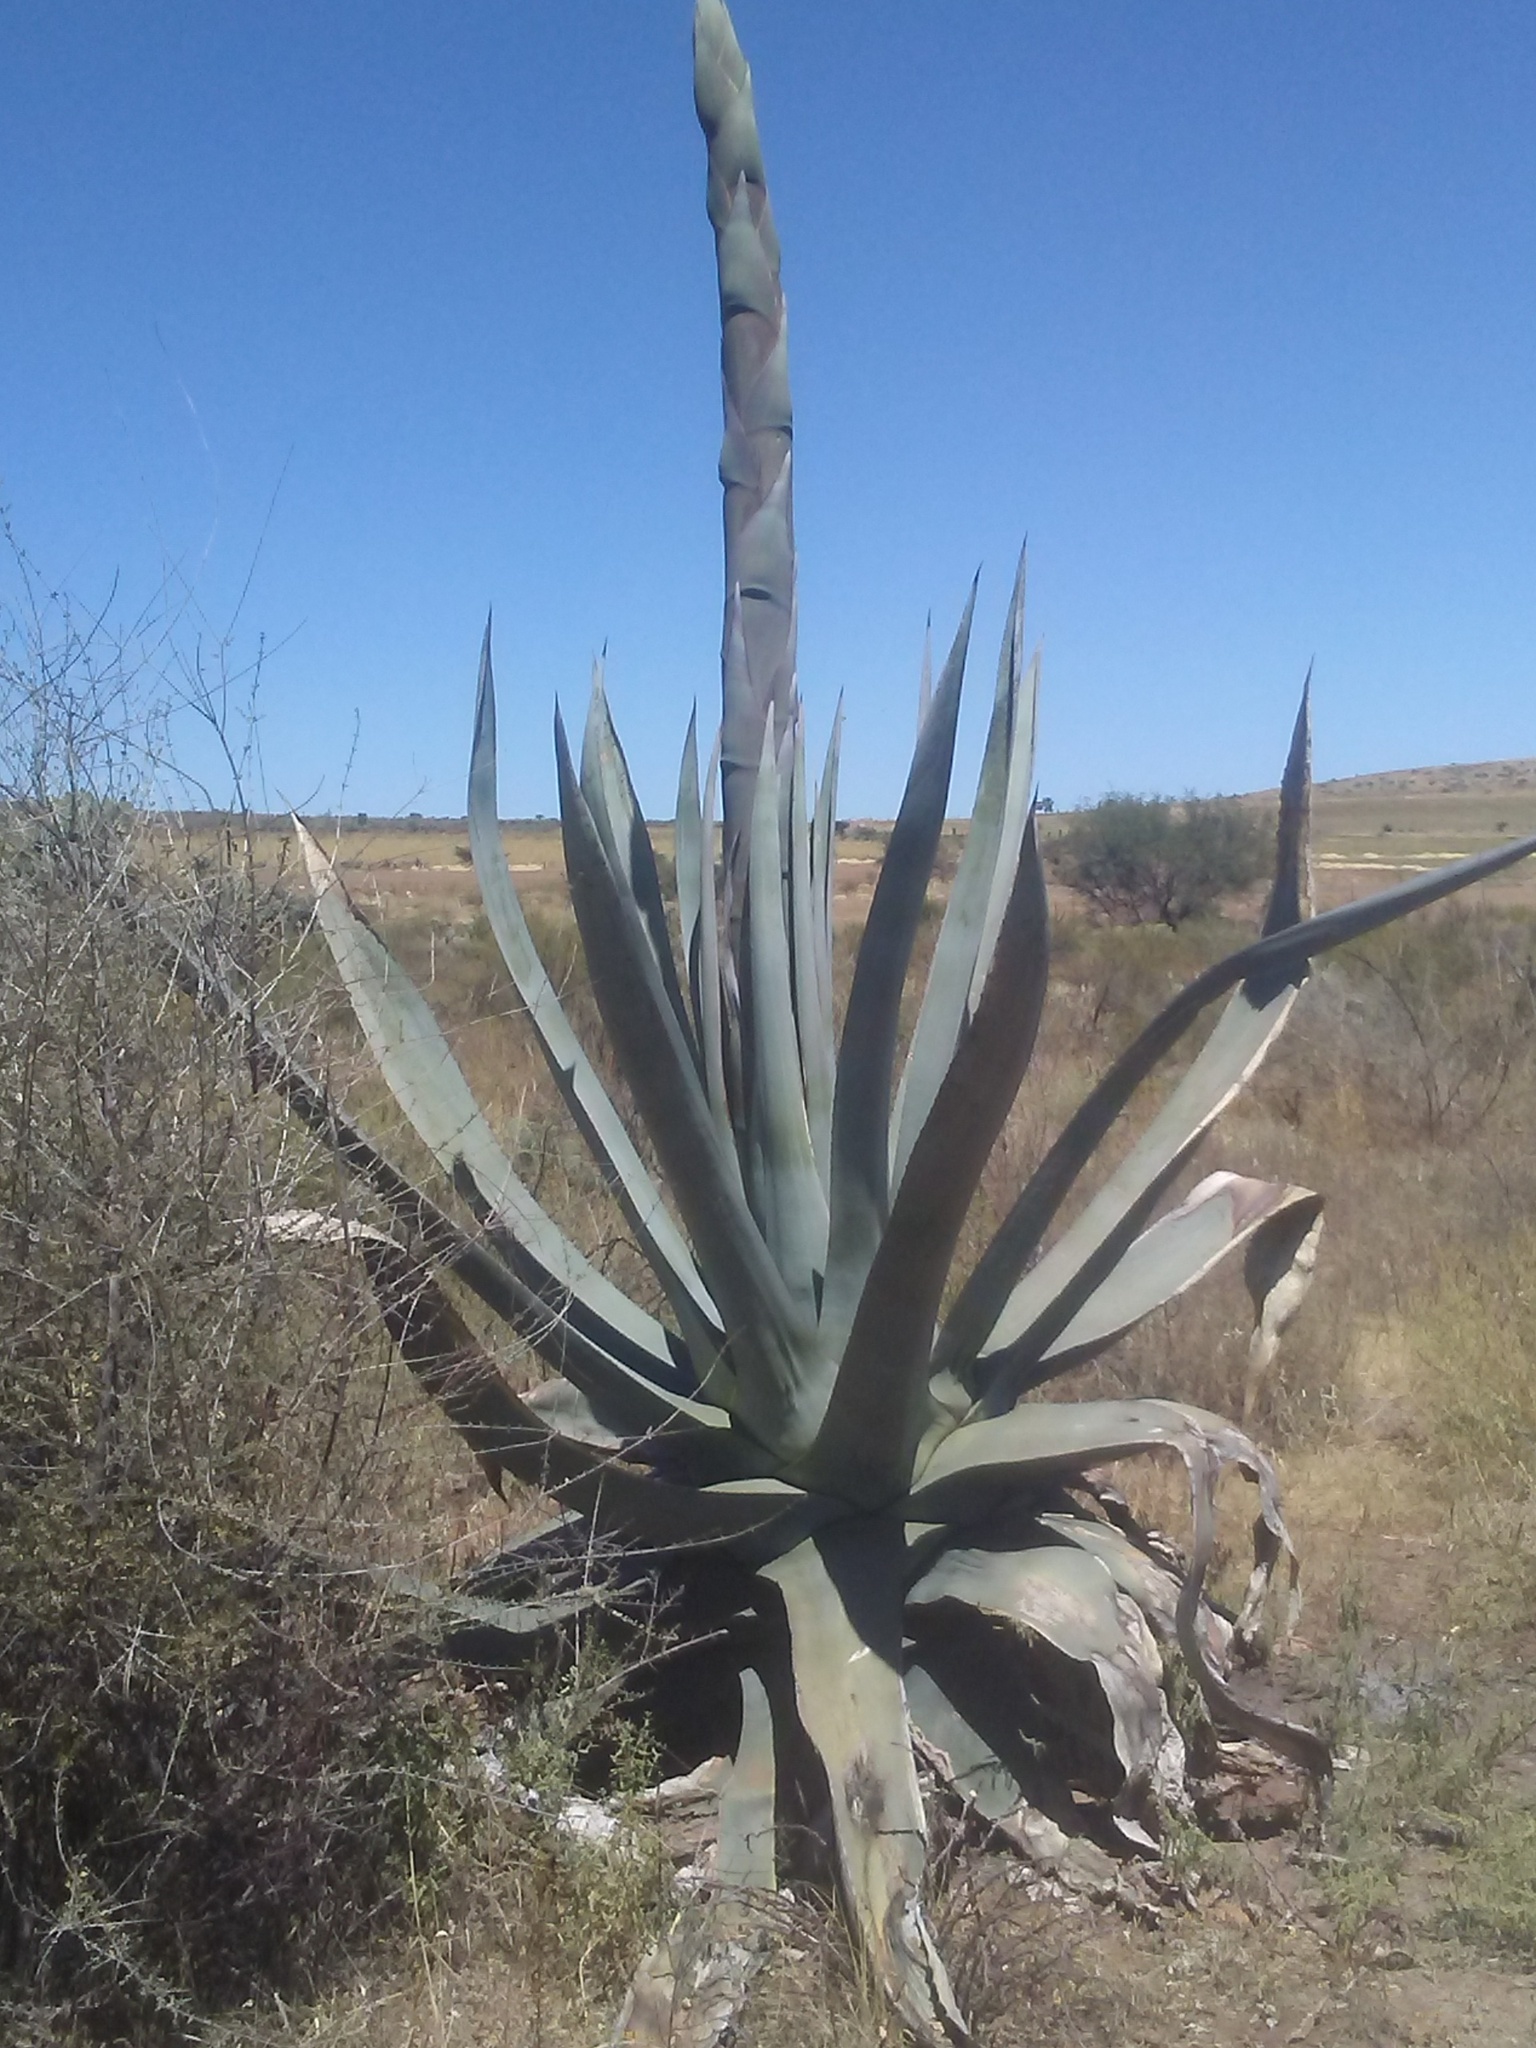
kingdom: Plantae
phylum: Tracheophyta
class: Liliopsida
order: Asparagales
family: Asparagaceae
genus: Agave
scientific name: Agave mapisaga
